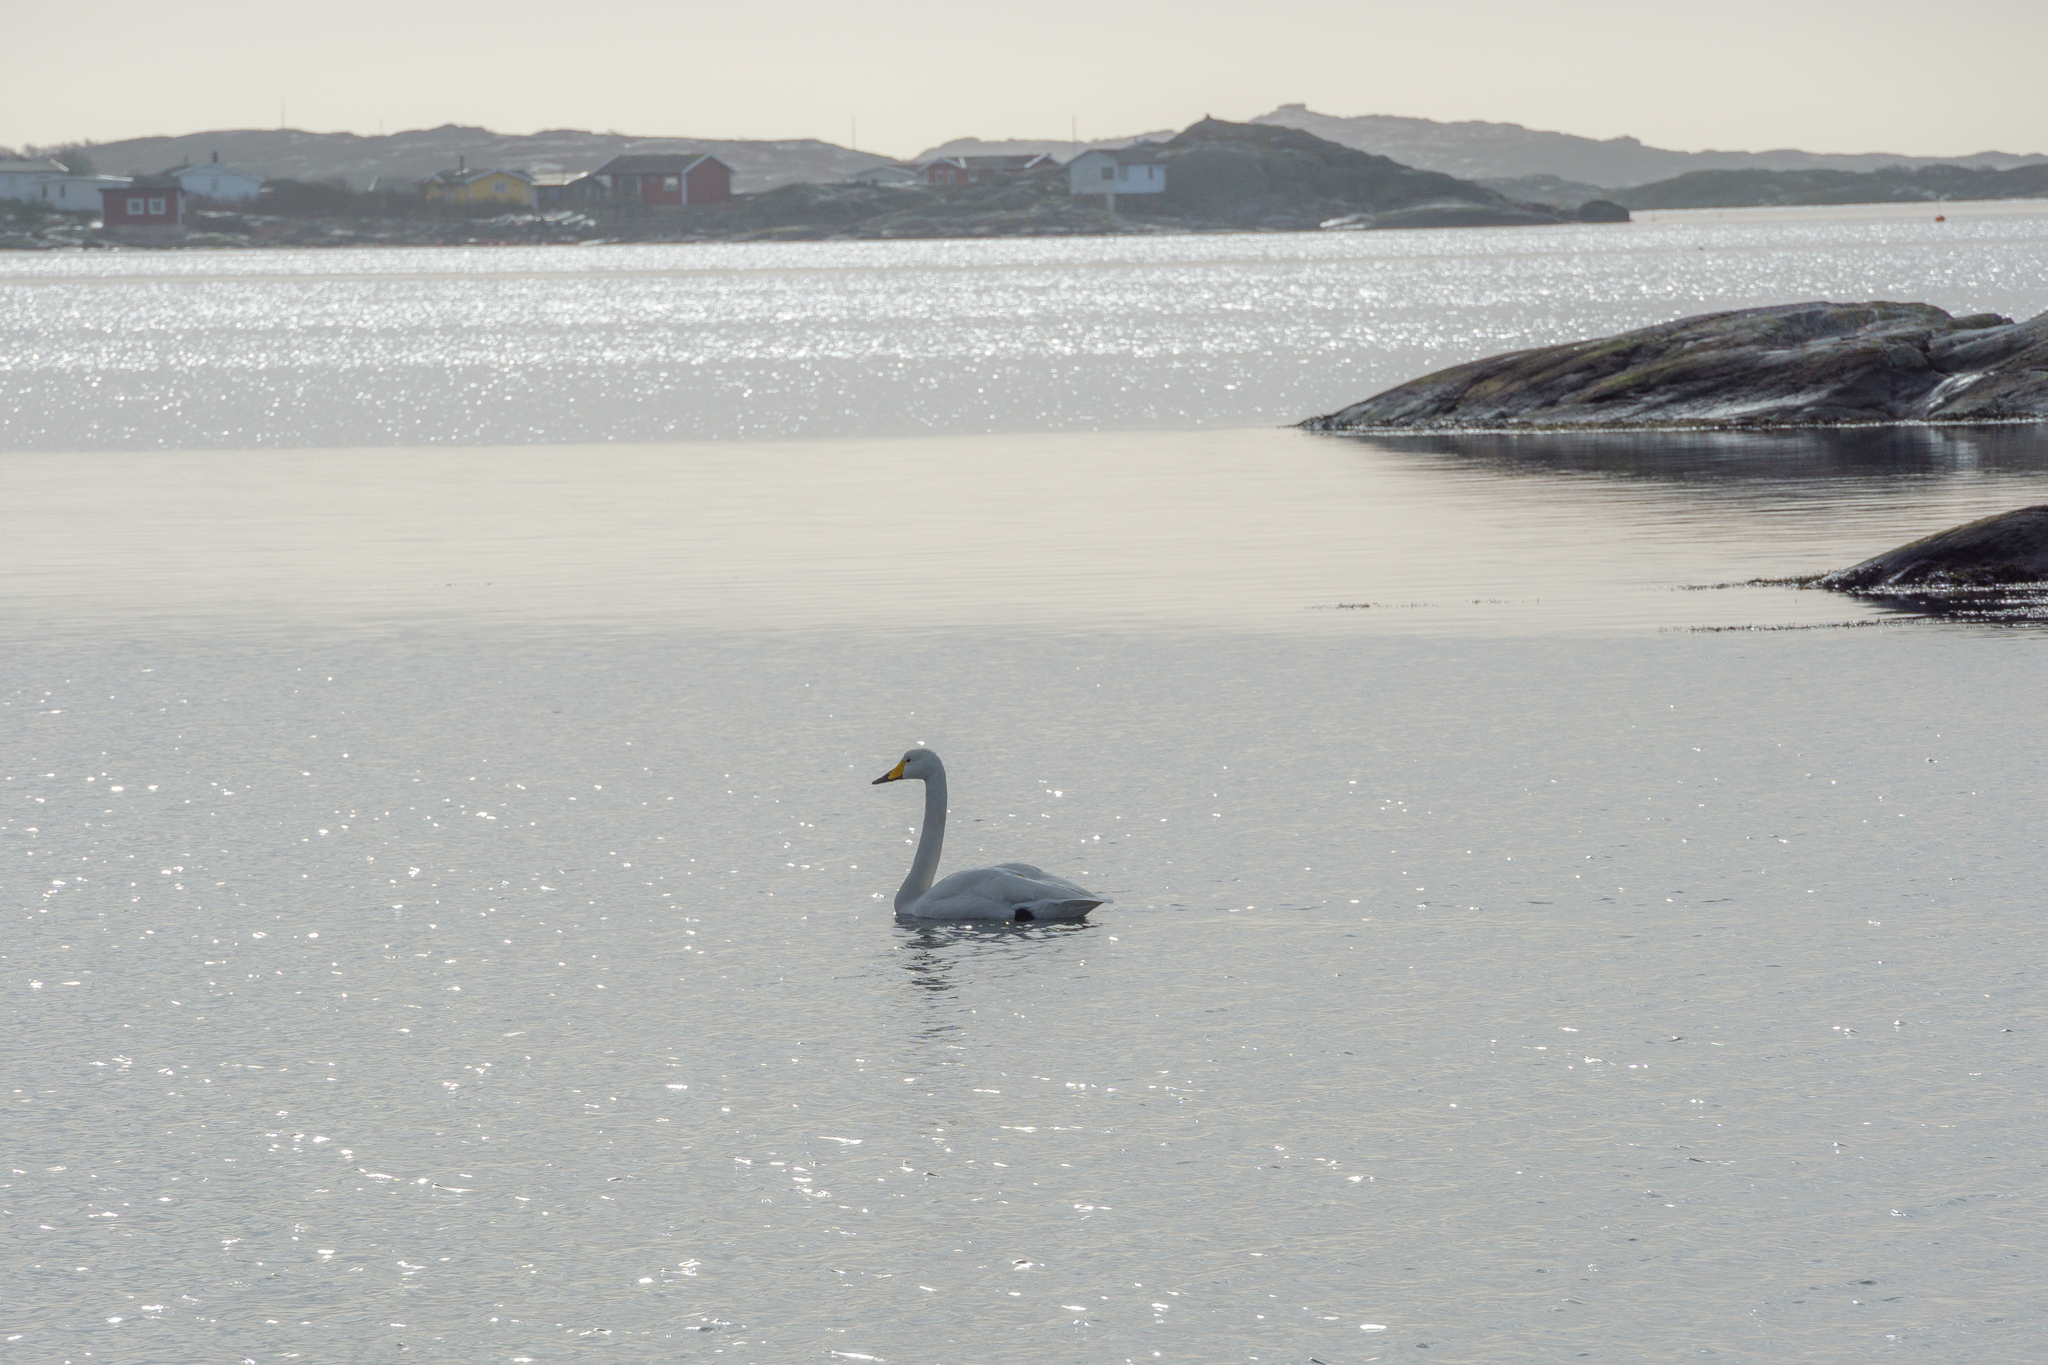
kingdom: Animalia
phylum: Chordata
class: Aves
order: Anseriformes
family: Anatidae
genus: Cygnus
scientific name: Cygnus cygnus
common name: Whooper swan
